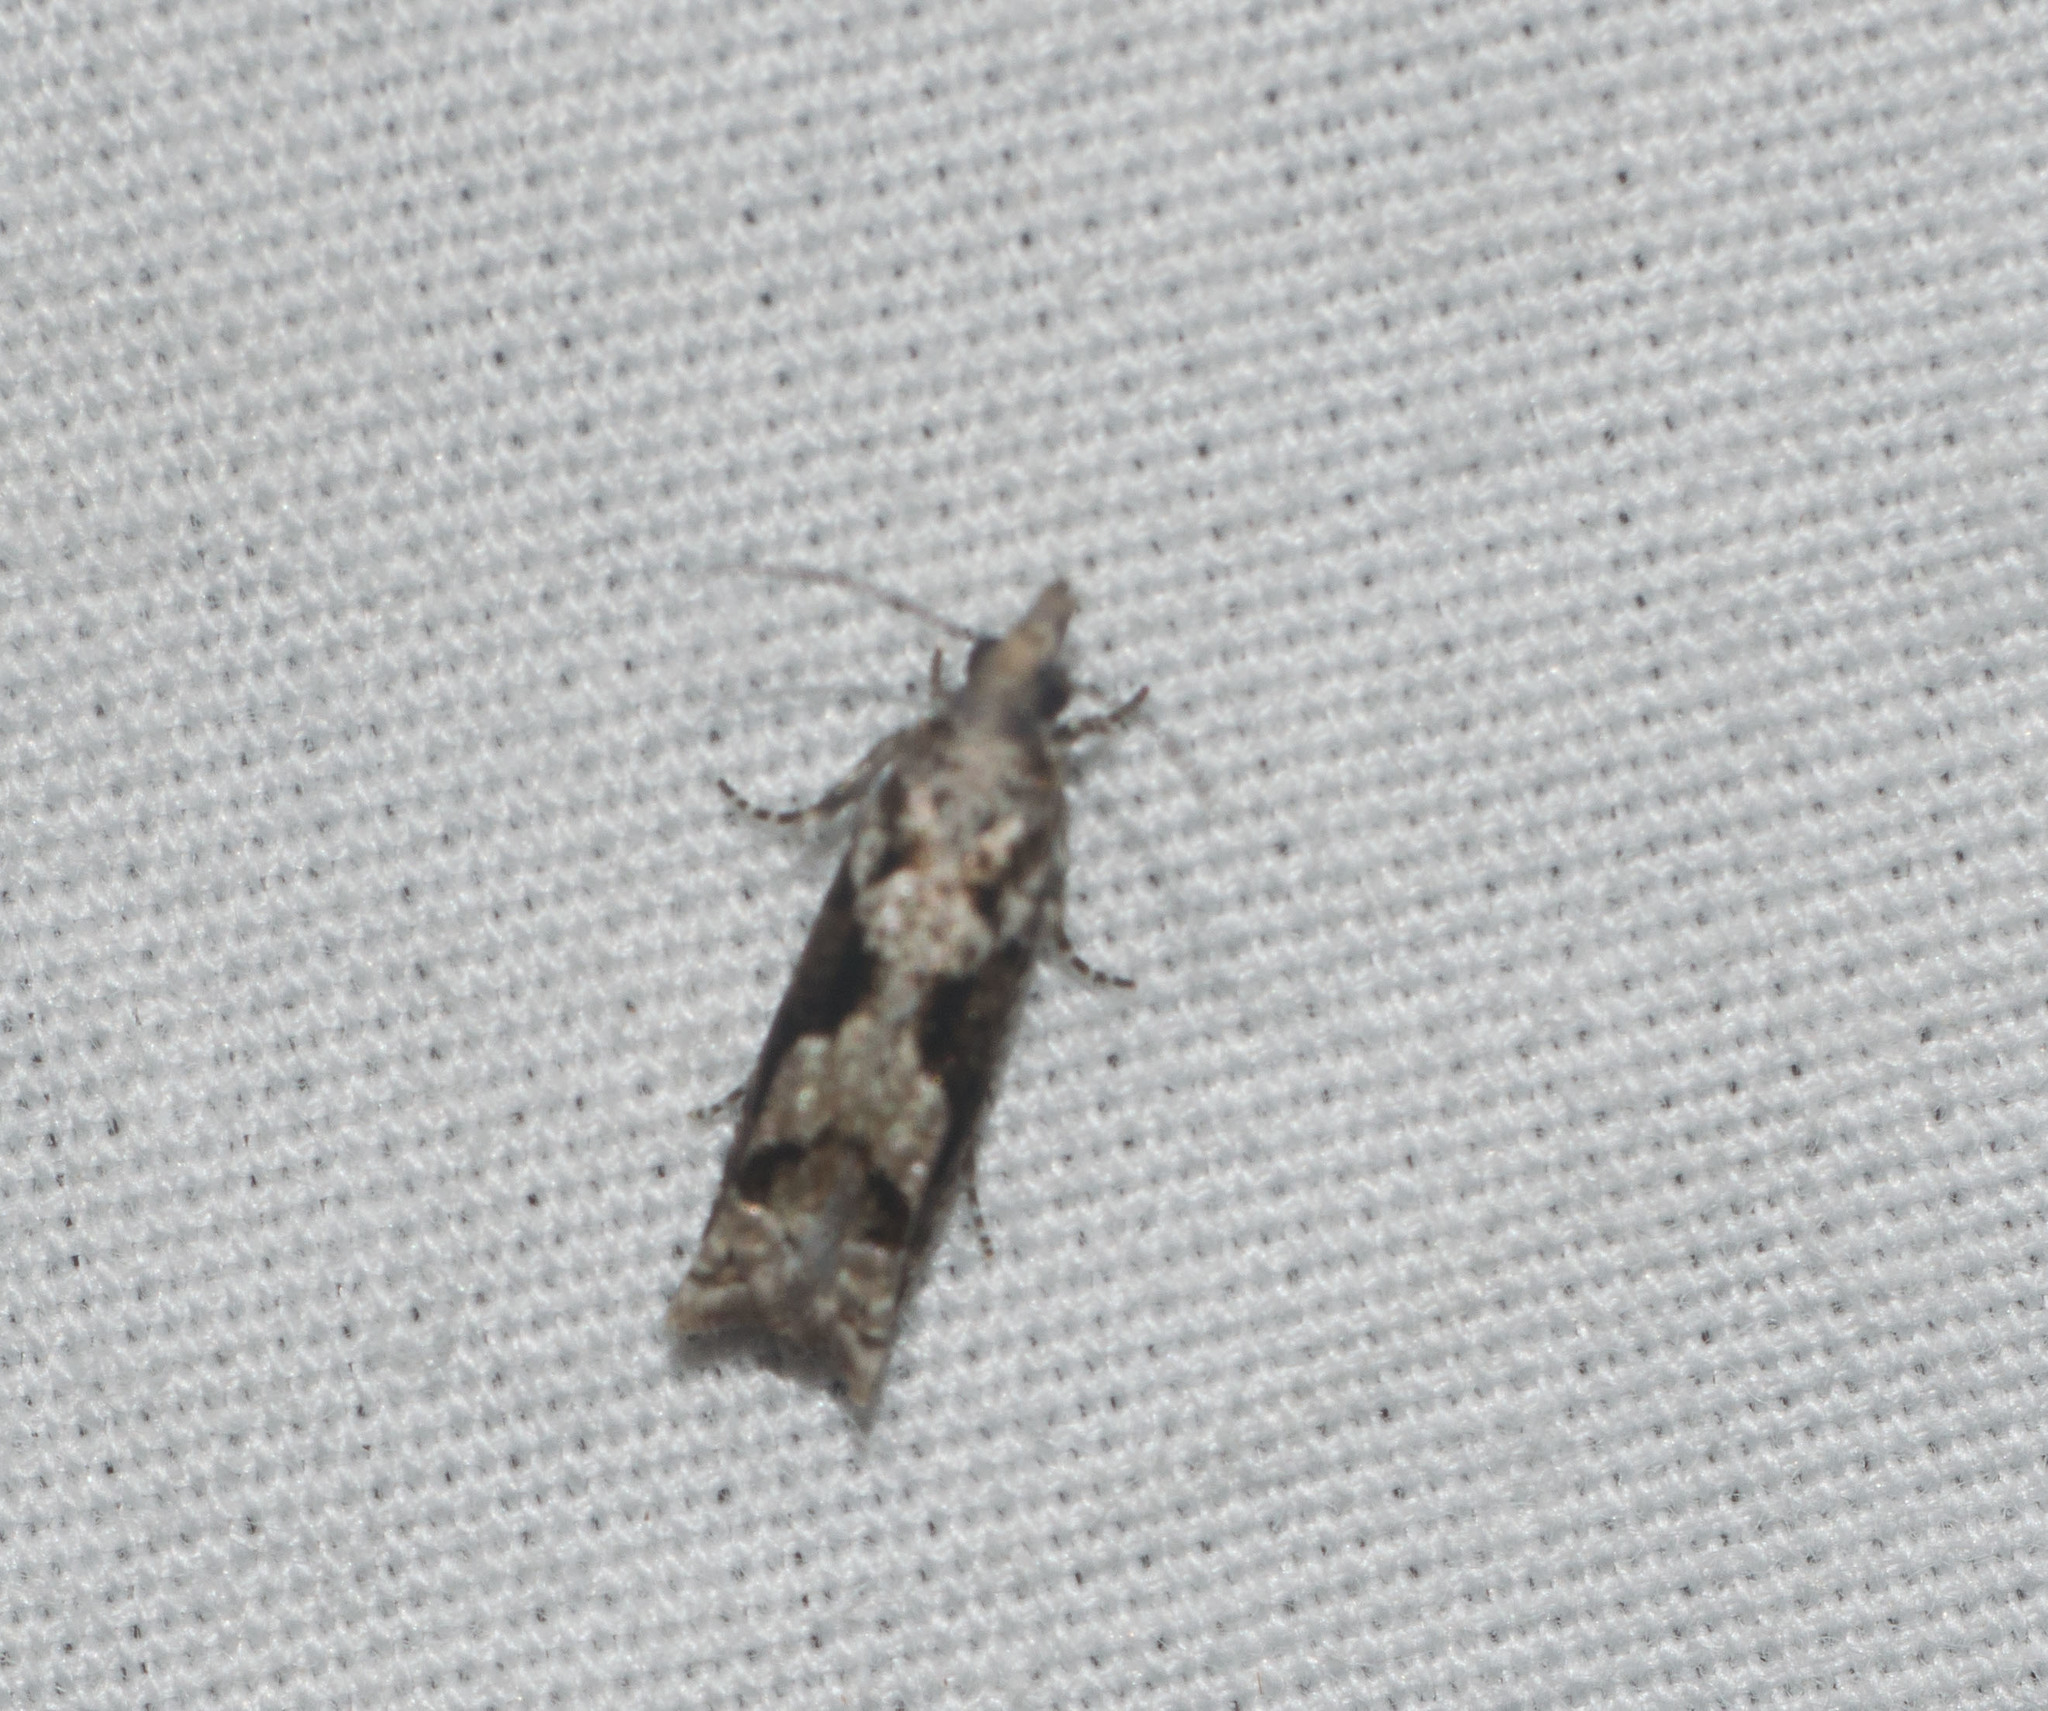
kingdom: Animalia
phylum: Arthropoda
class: Insecta
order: Lepidoptera
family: Tortricidae
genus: Eccoptocera
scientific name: Eccoptocera foetorivorans
